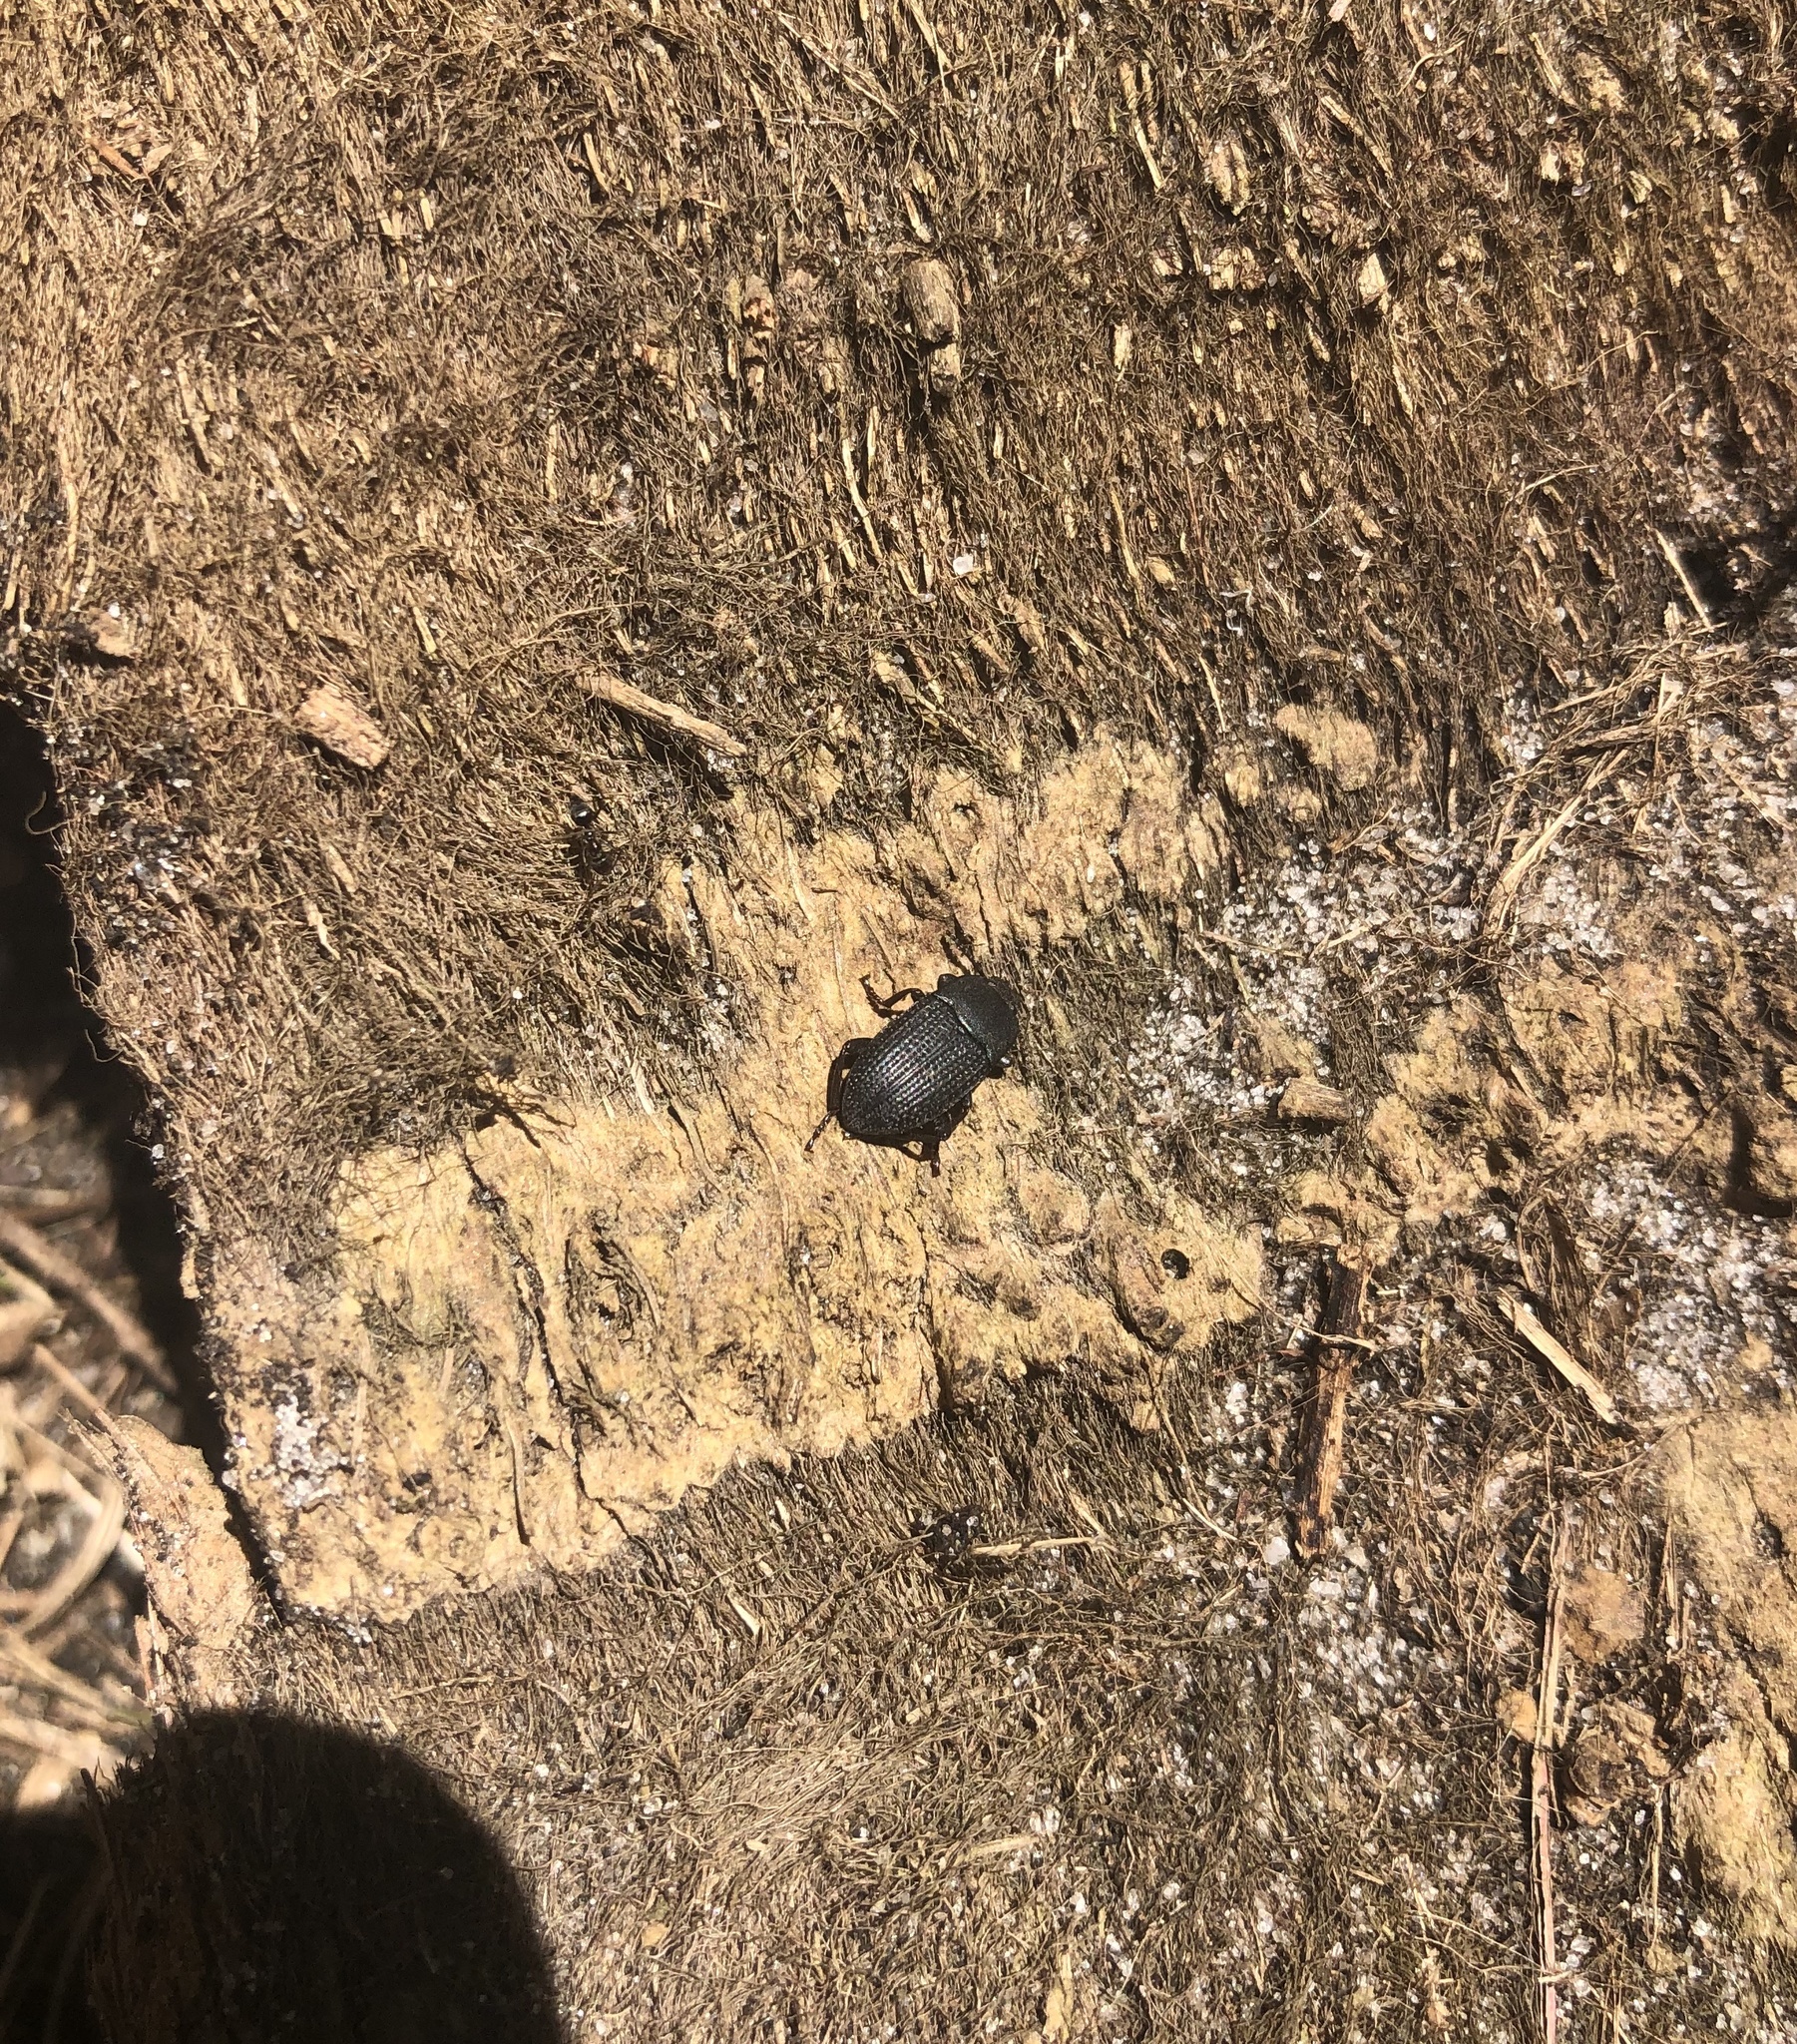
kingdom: Animalia
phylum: Arthropoda
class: Insecta
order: Coleoptera
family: Tenebrionidae
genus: Asiopus
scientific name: Asiopus
